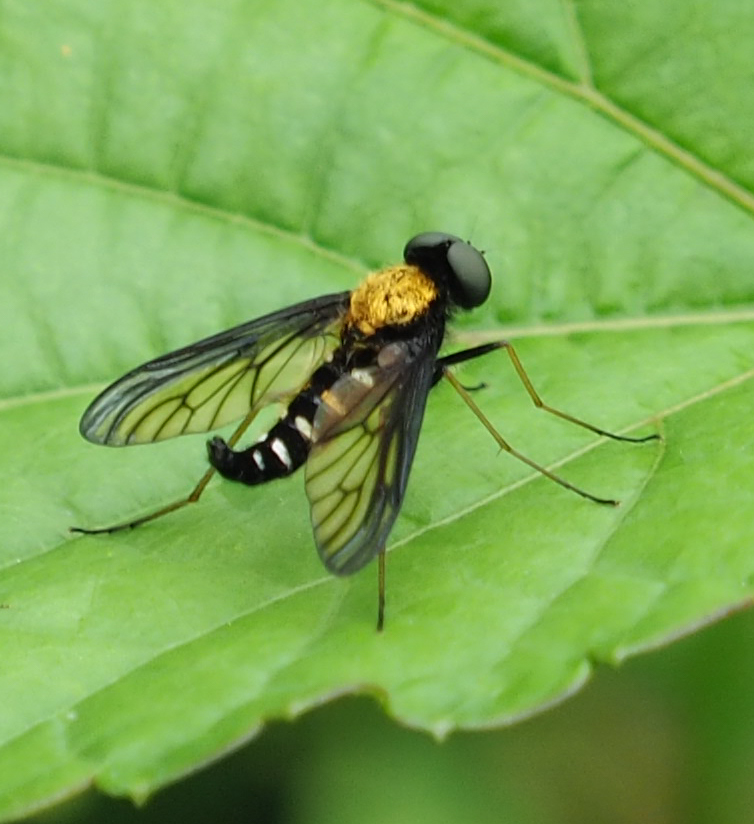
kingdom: Animalia
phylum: Arthropoda
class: Insecta
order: Diptera
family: Rhagionidae
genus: Chrysopilus
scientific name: Chrysopilus thoracicus
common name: Golden-backed snipe fly
